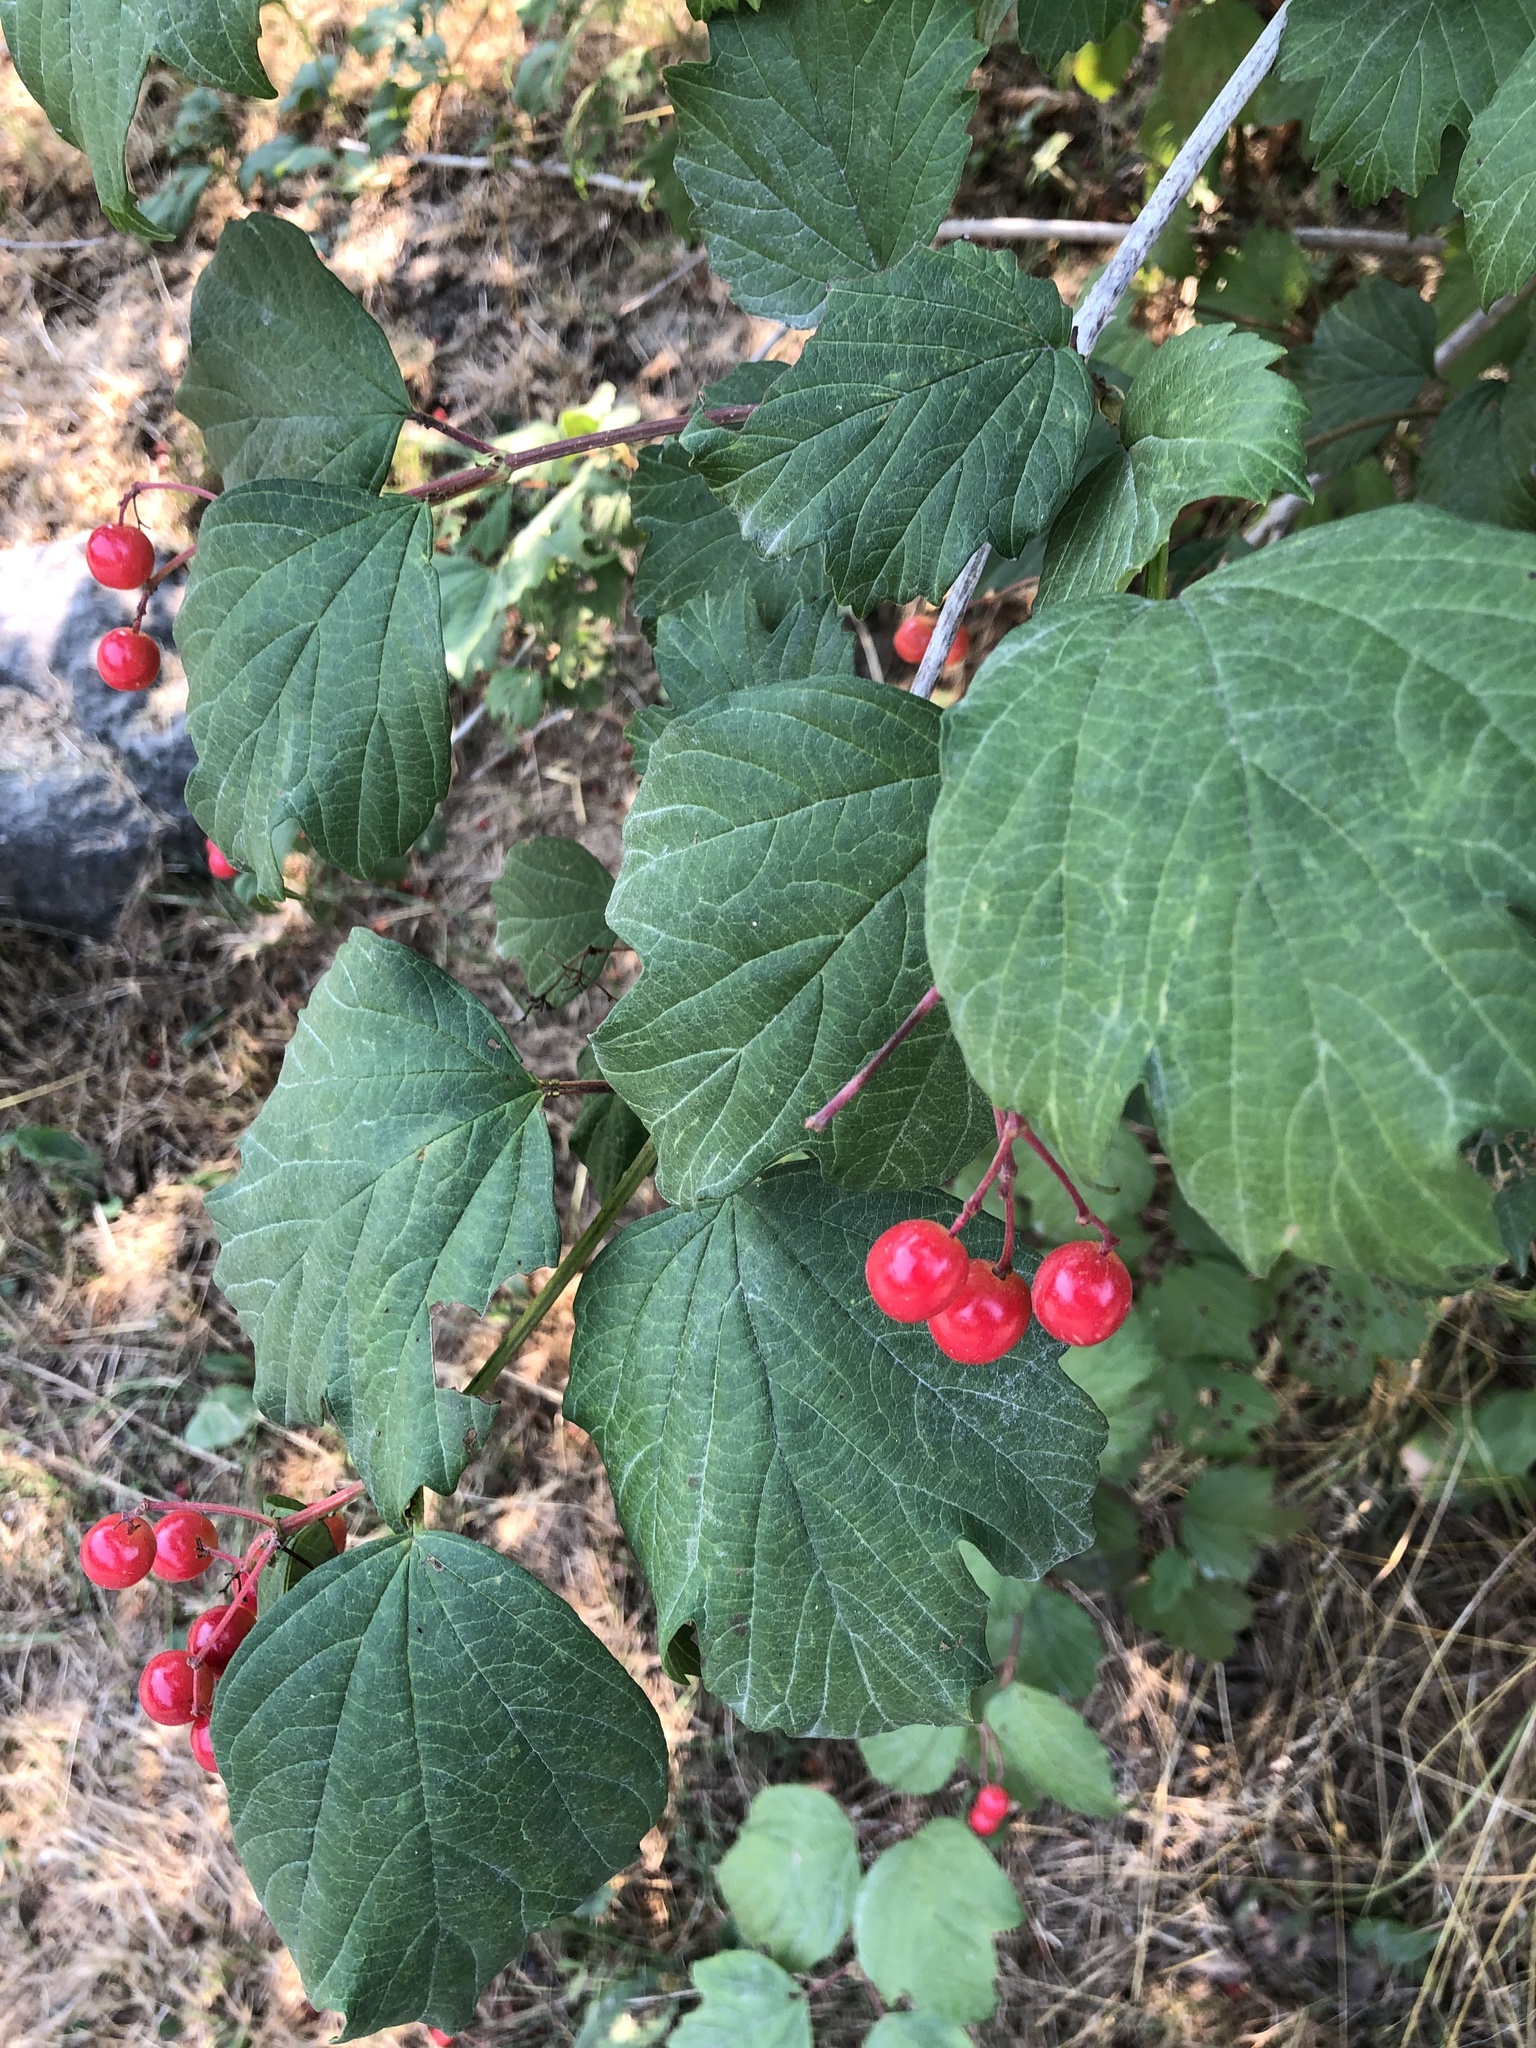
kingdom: Plantae
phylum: Tracheophyta
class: Magnoliopsida
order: Dipsacales
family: Viburnaceae
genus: Viburnum
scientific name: Viburnum opulus
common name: Guelder-rose
